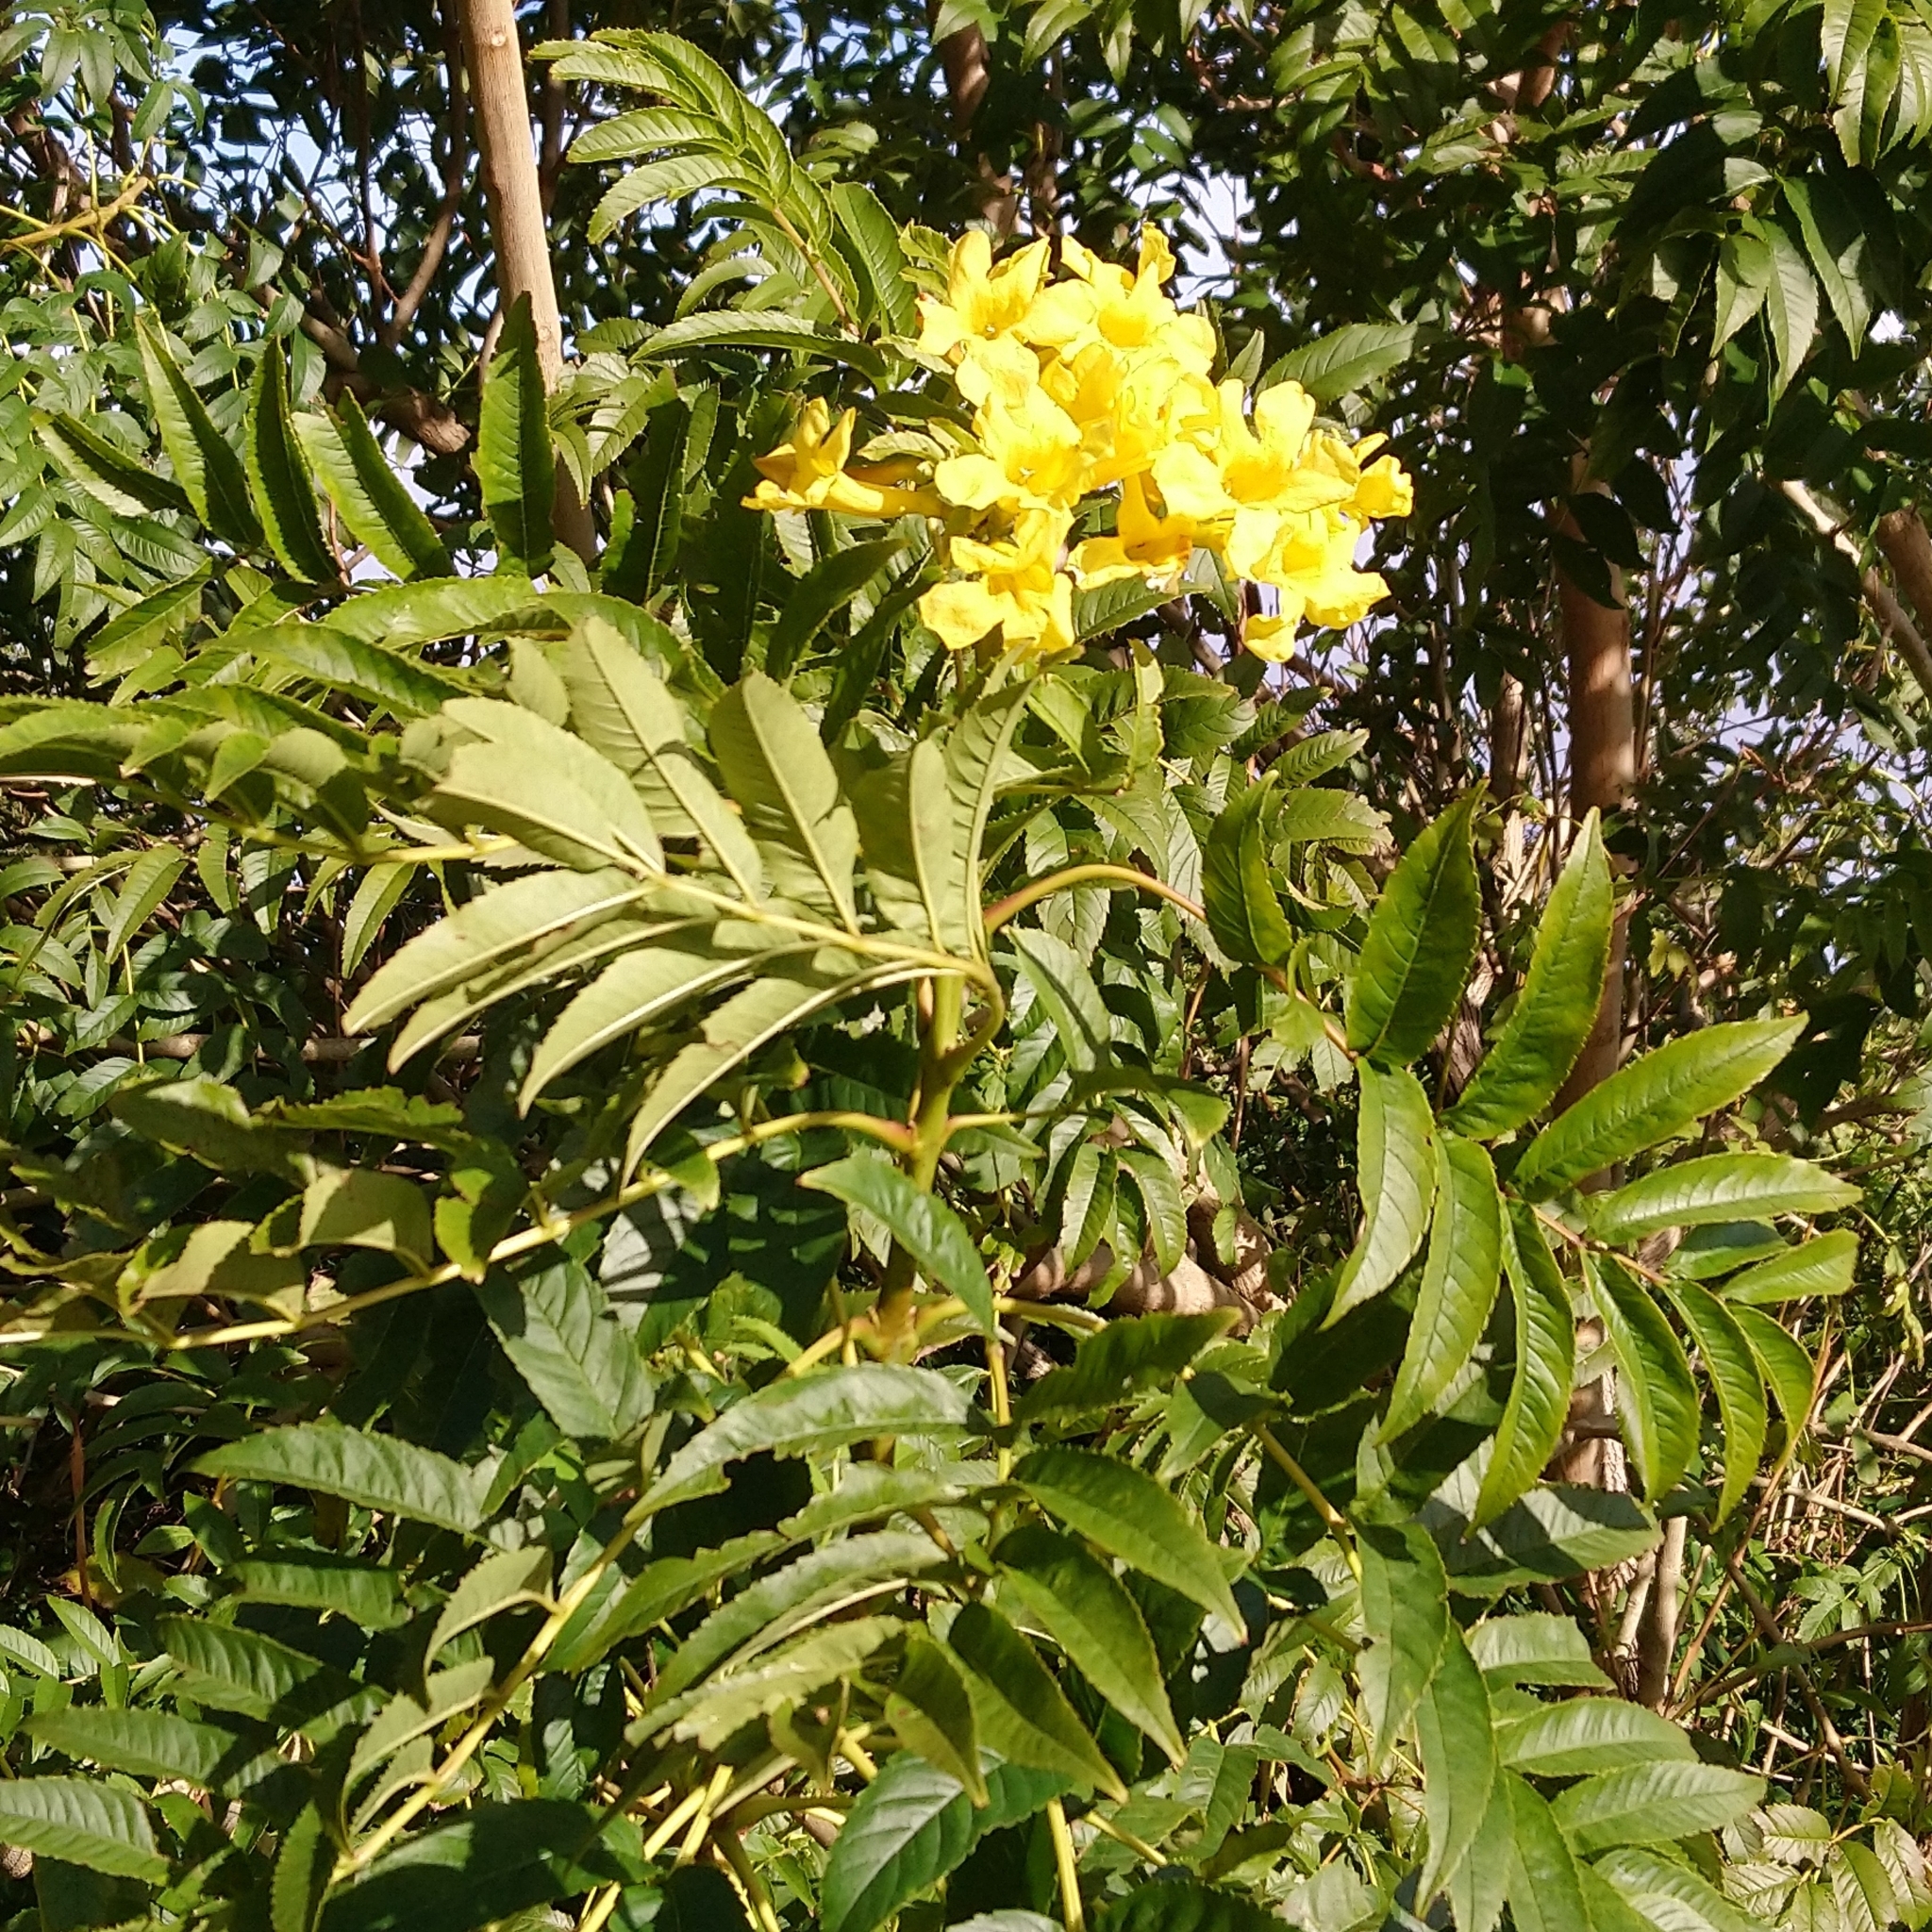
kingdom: Plantae
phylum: Tracheophyta
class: Magnoliopsida
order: Lamiales
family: Bignoniaceae
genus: Tecoma
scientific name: Tecoma stans
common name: Yellow trumpetbush
